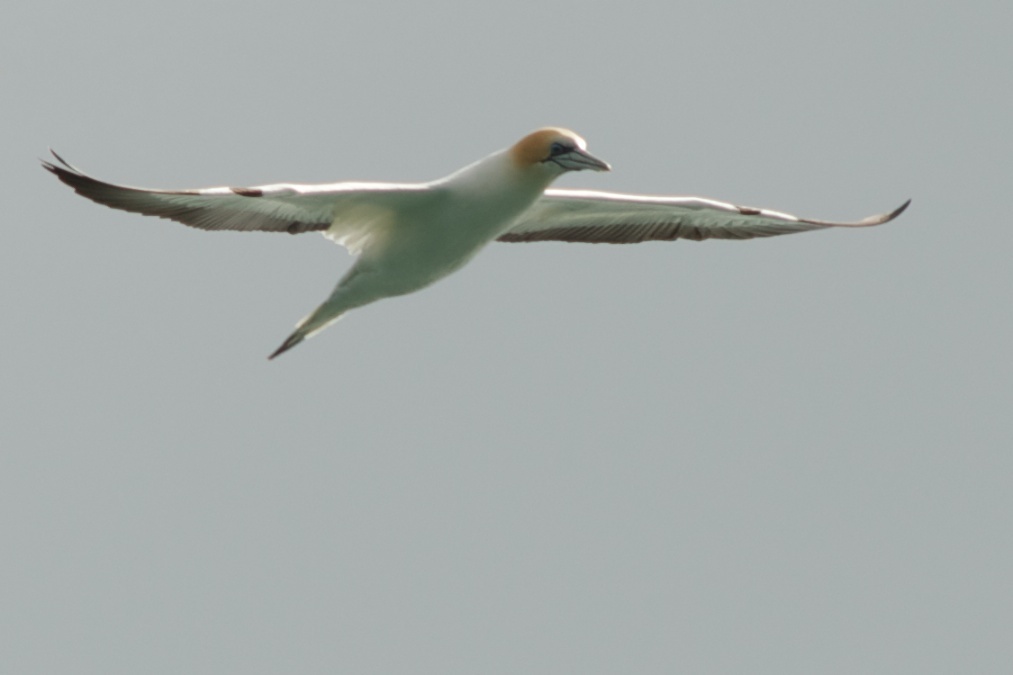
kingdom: Animalia
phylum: Chordata
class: Aves
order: Suliformes
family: Sulidae
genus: Morus
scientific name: Morus serrator
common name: Australasian gannet
